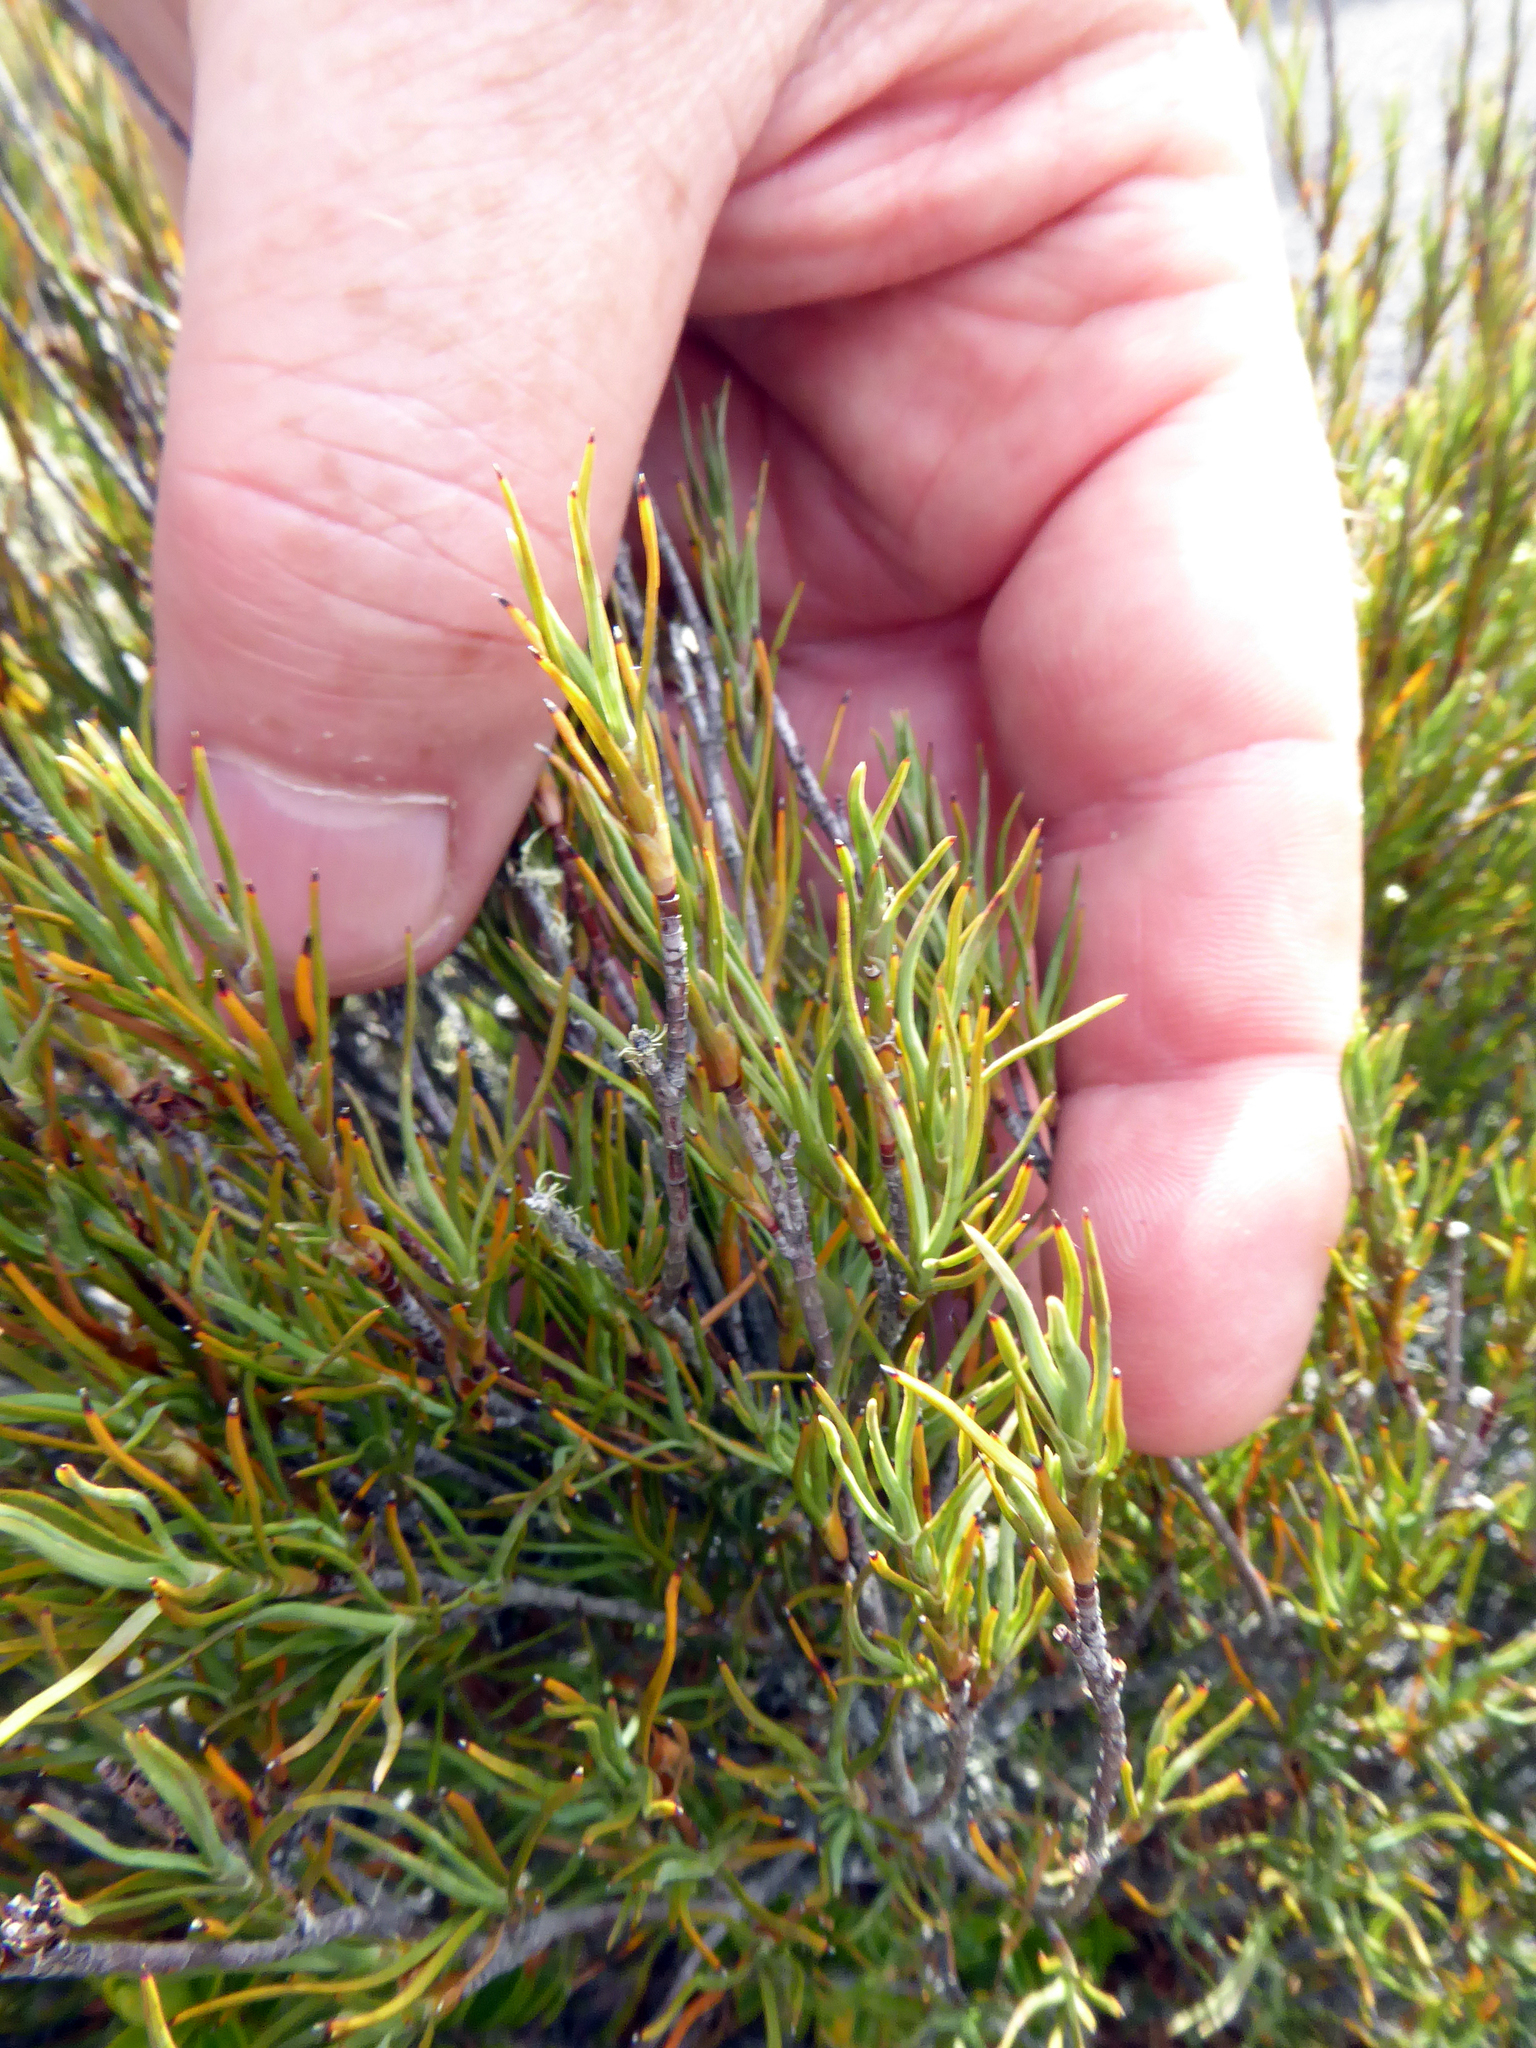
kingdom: Plantae
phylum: Tracheophyta
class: Magnoliopsida
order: Ericales
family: Ericaceae
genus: Dracophyllum
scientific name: Dracophyllum subulatum
